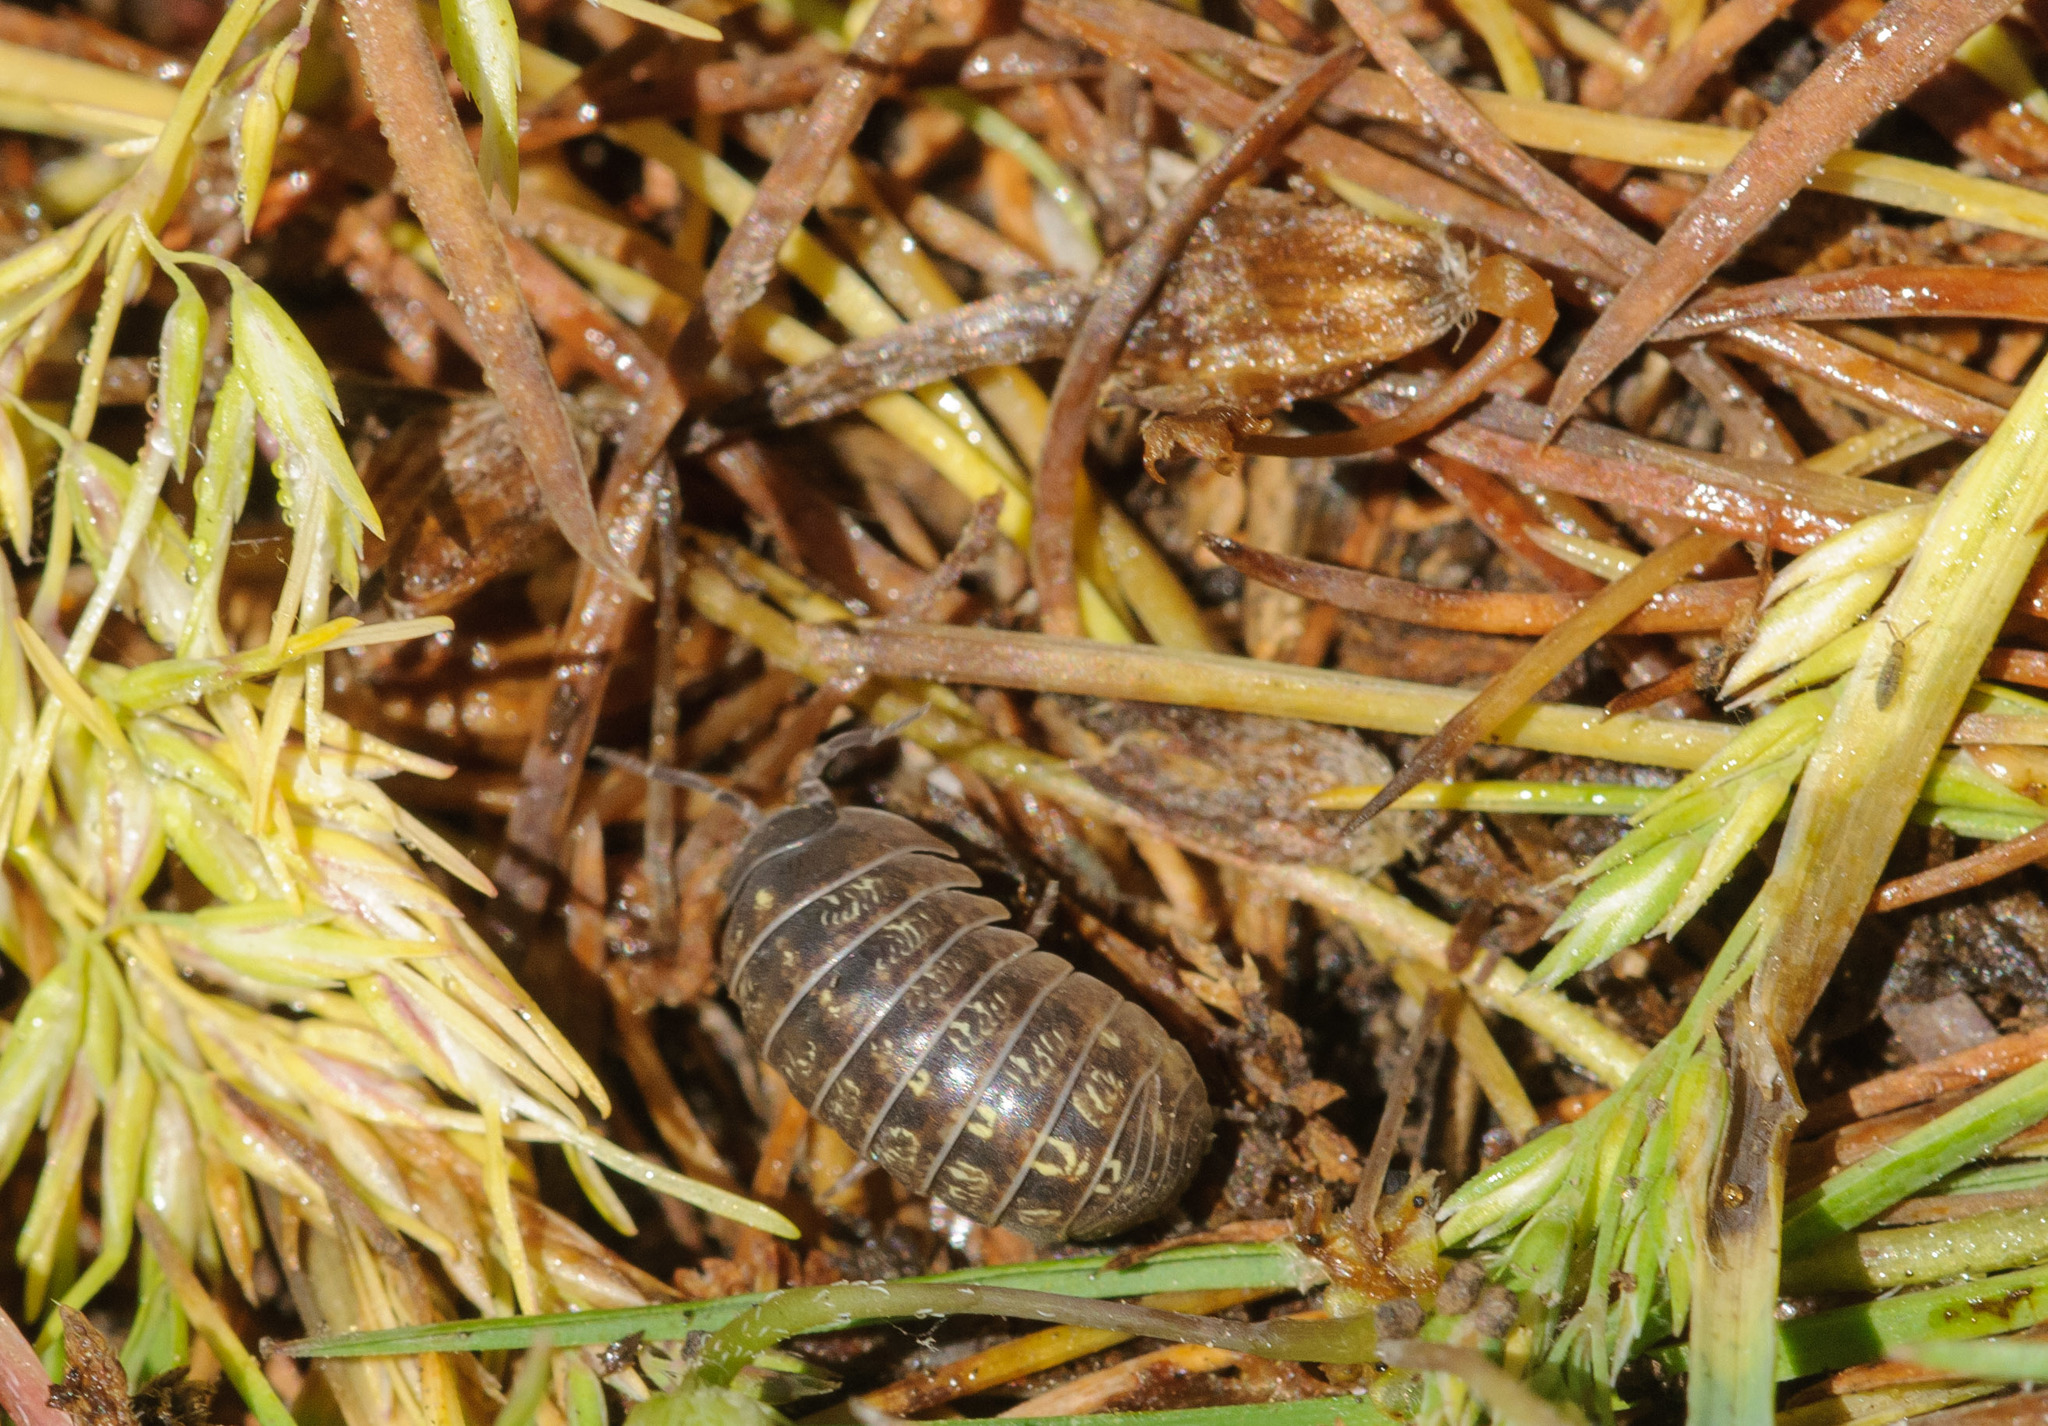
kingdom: Animalia
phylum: Arthropoda
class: Malacostraca
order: Isopoda
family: Armadillidiidae
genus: Armadillidium
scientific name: Armadillidium vulgare
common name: Common pill woodlouse
